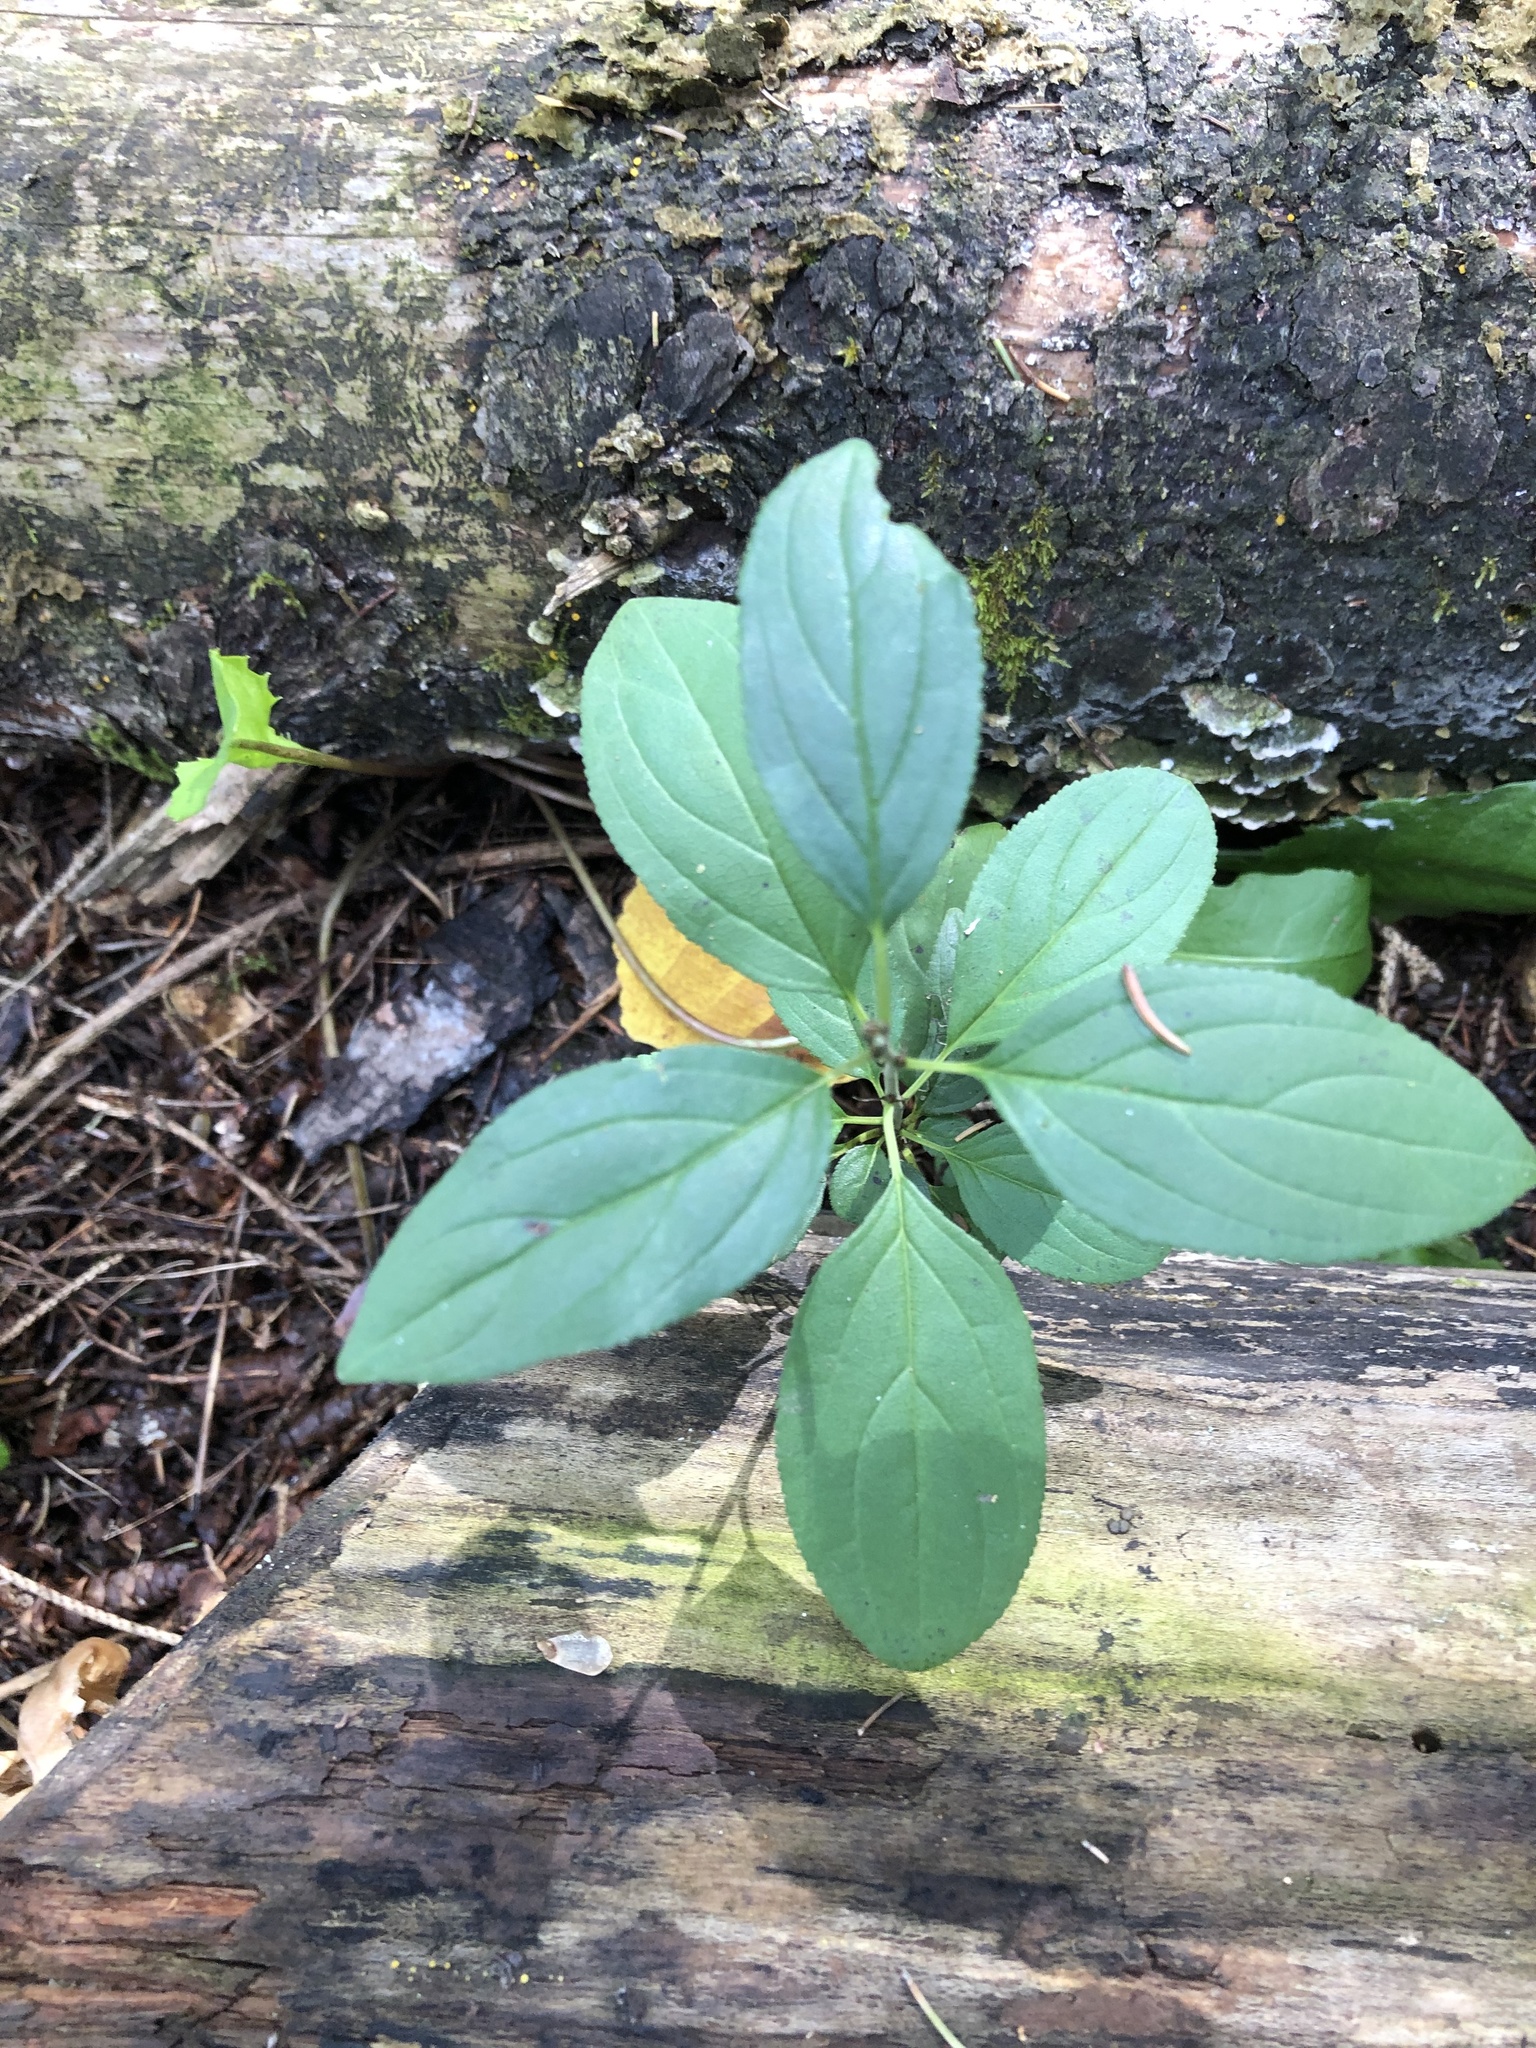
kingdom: Plantae
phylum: Tracheophyta
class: Magnoliopsida
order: Rosales
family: Rhamnaceae
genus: Rhamnus
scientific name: Rhamnus cathartica
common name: Common buckthorn
